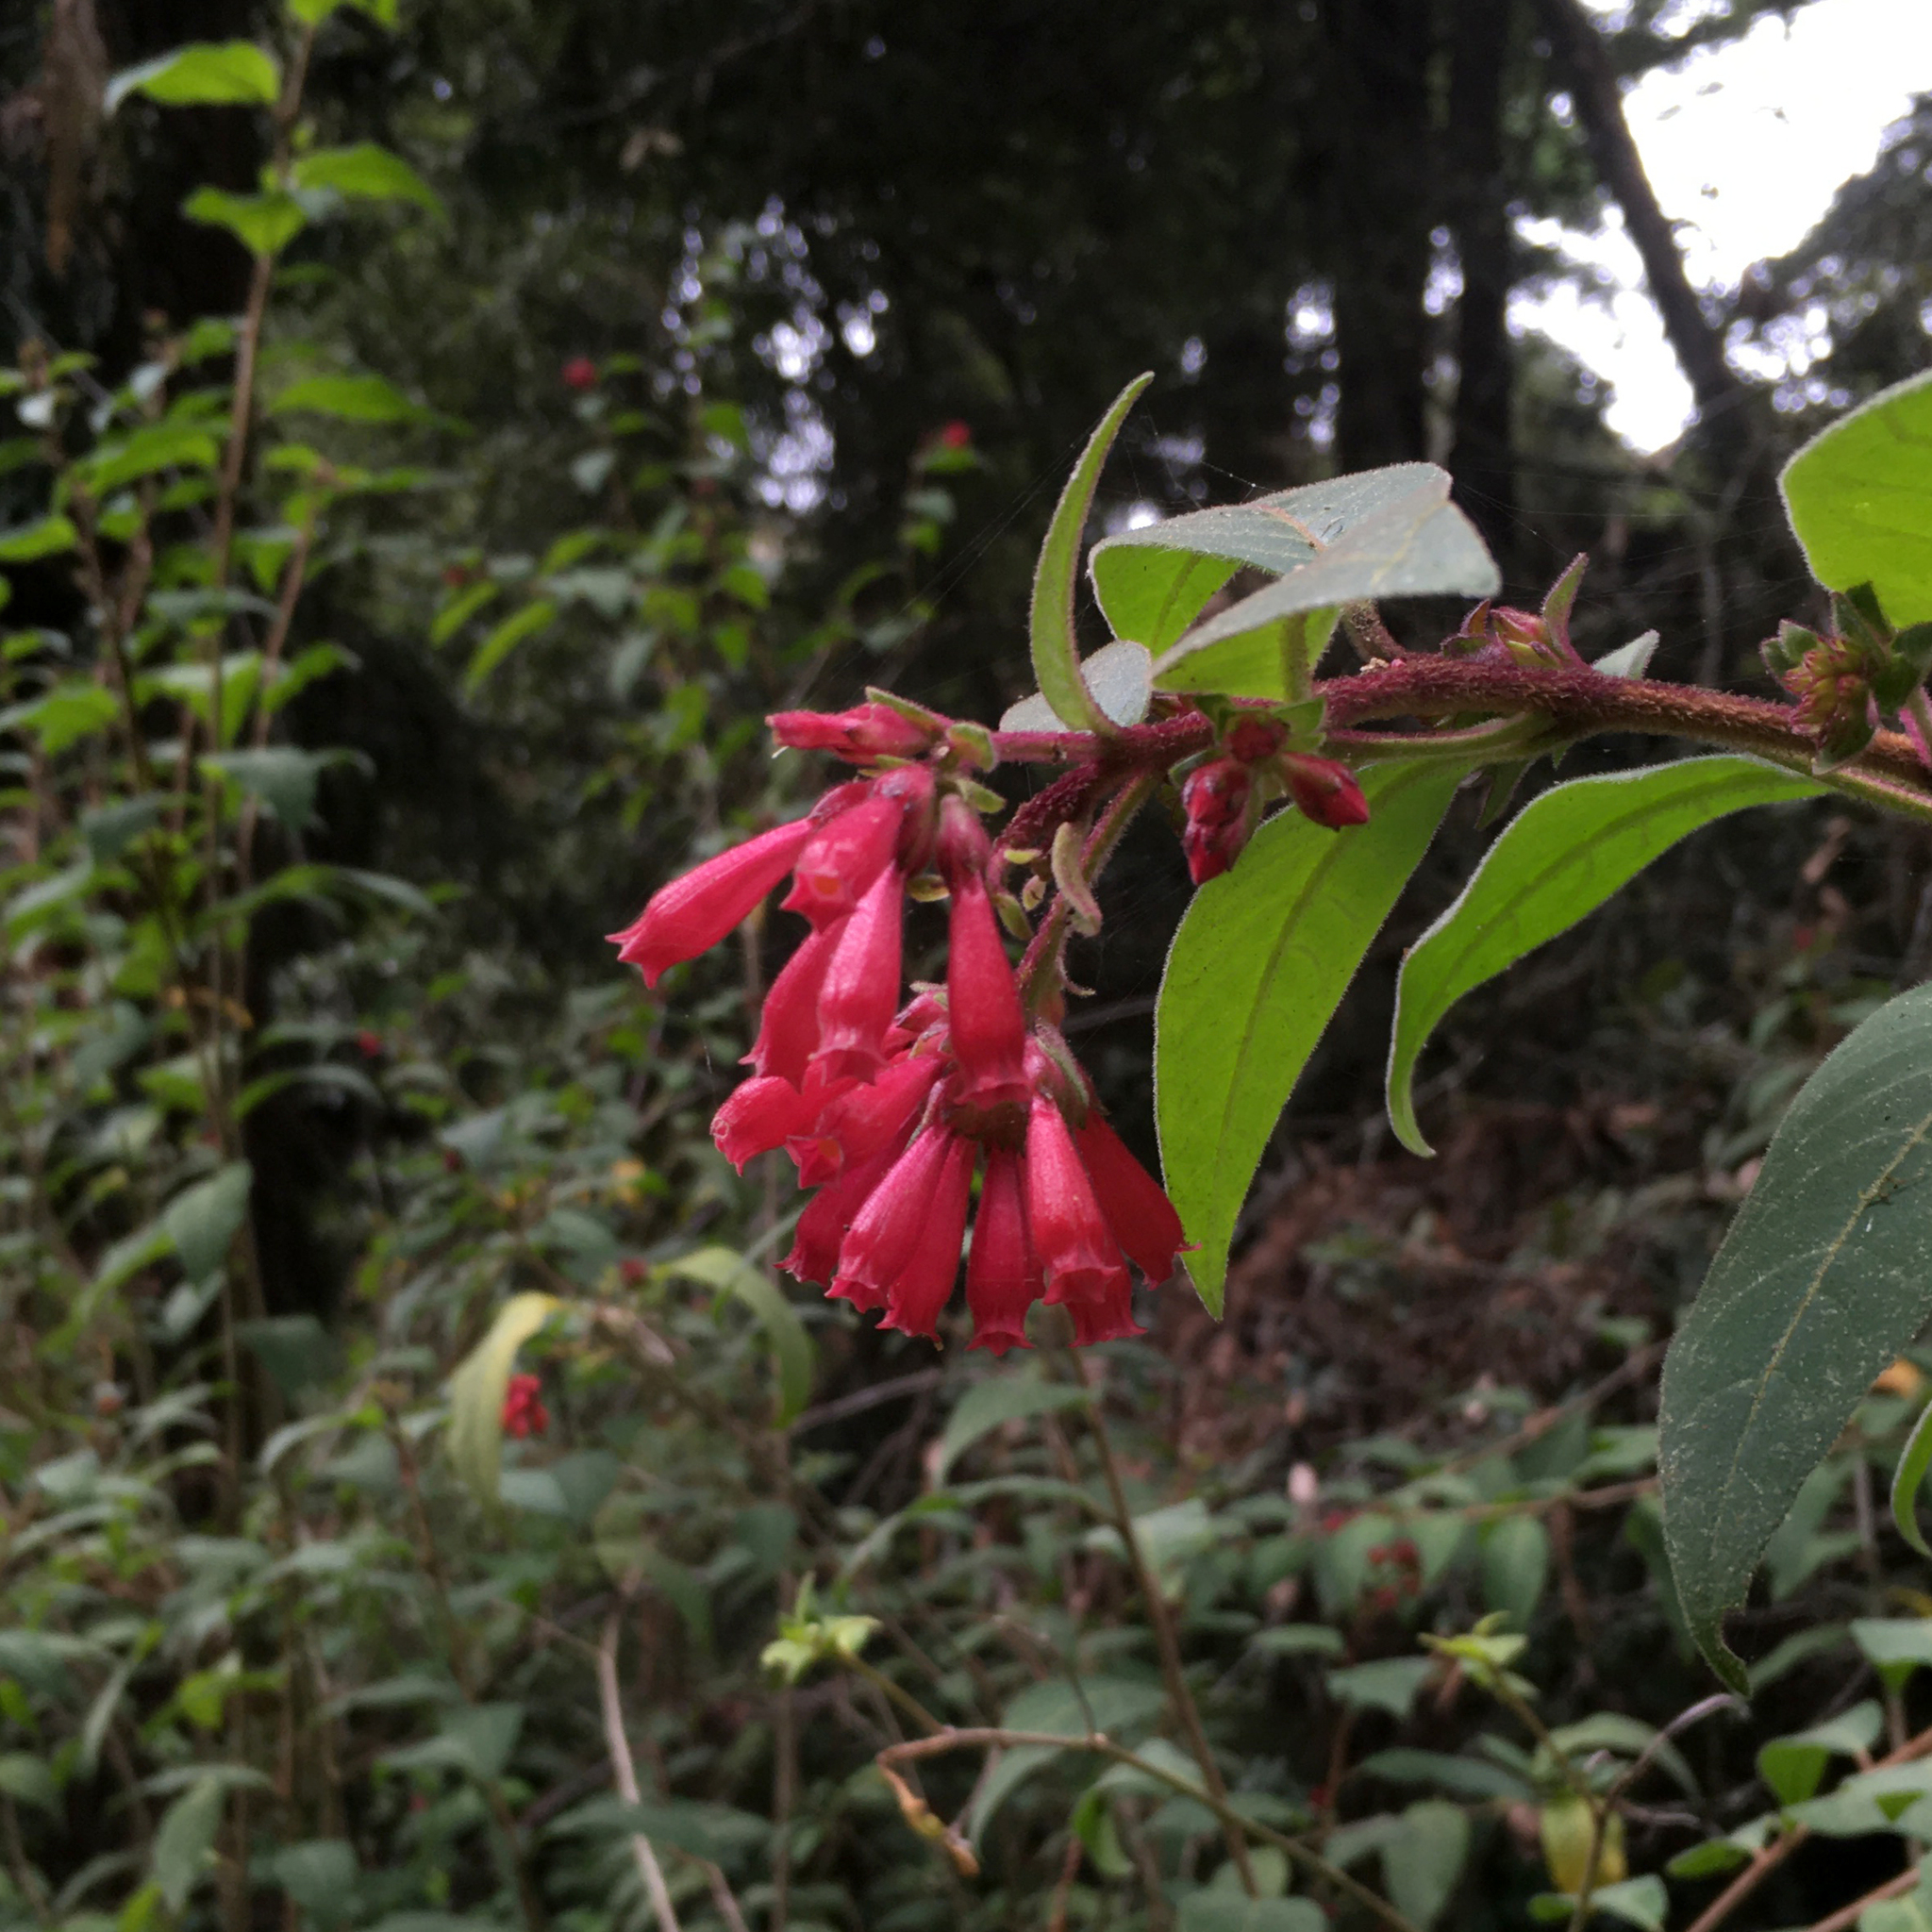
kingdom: Plantae
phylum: Tracheophyta
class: Magnoliopsida
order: Solanales
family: Solanaceae
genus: Cestrum
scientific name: Cestrum elegans
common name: Crimson cestrum
